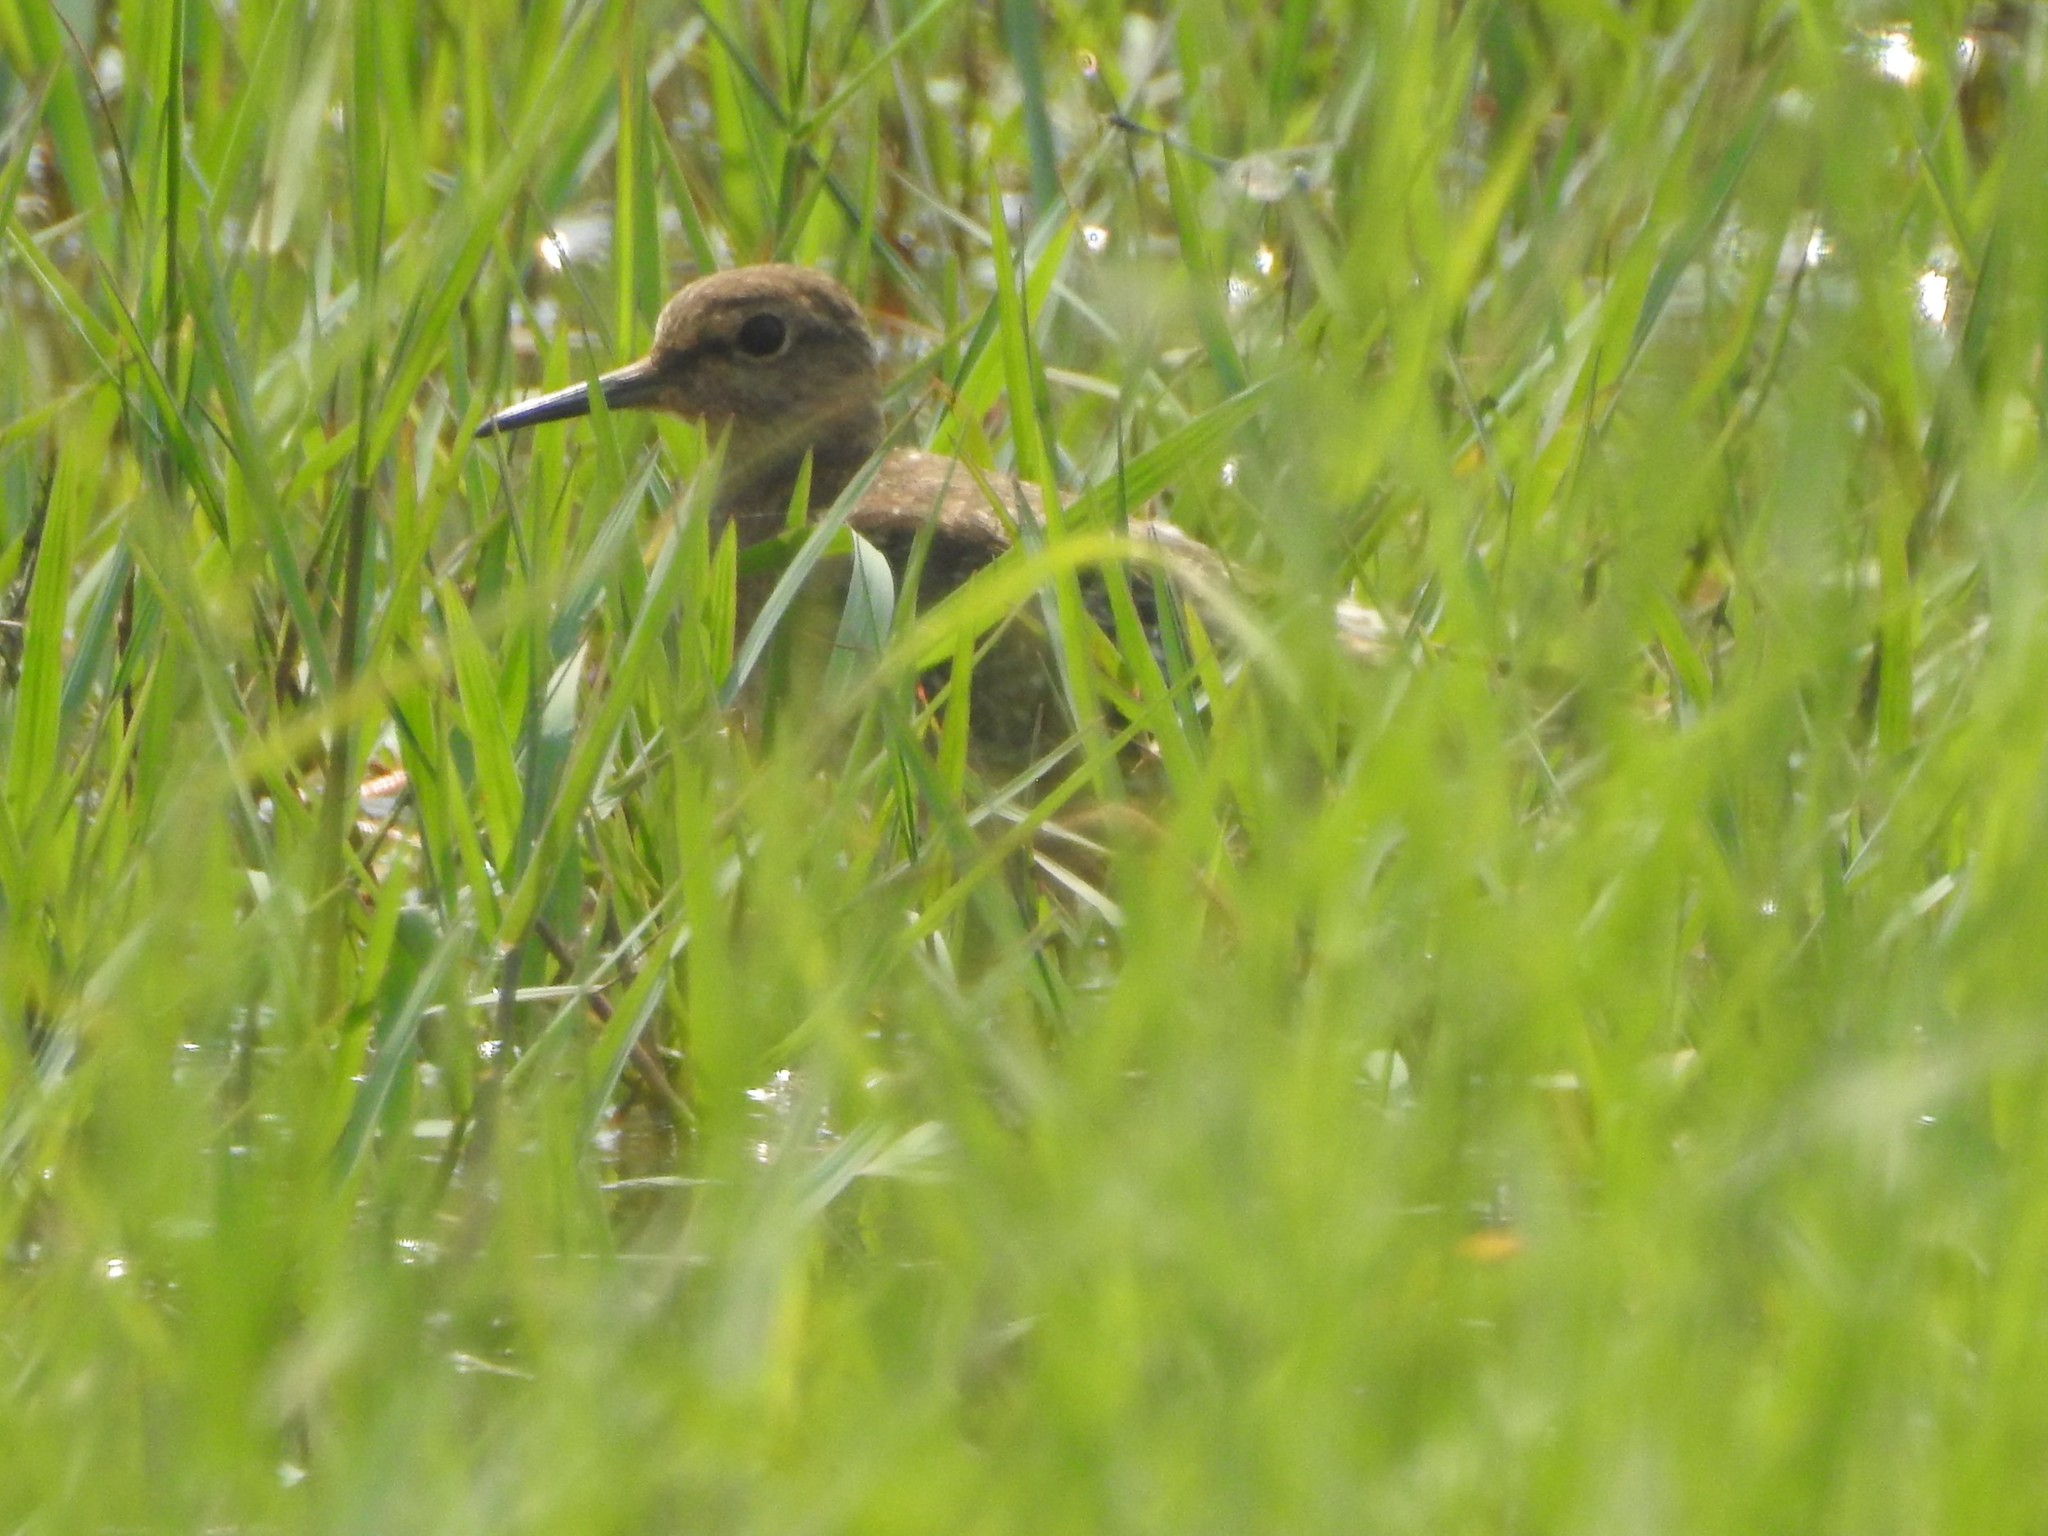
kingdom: Animalia
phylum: Chordata
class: Aves
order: Charadriiformes
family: Scolopacidae
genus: Tringa
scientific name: Tringa glareola
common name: Wood sandpiper
